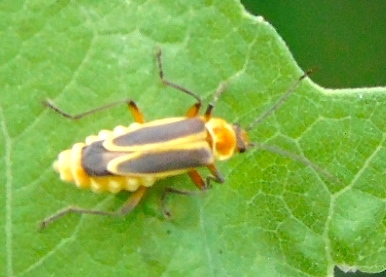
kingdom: Animalia
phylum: Arthropoda
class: Insecta
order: Coleoptera
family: Cantharidae
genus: Chauliognathus
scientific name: Chauliognathus
